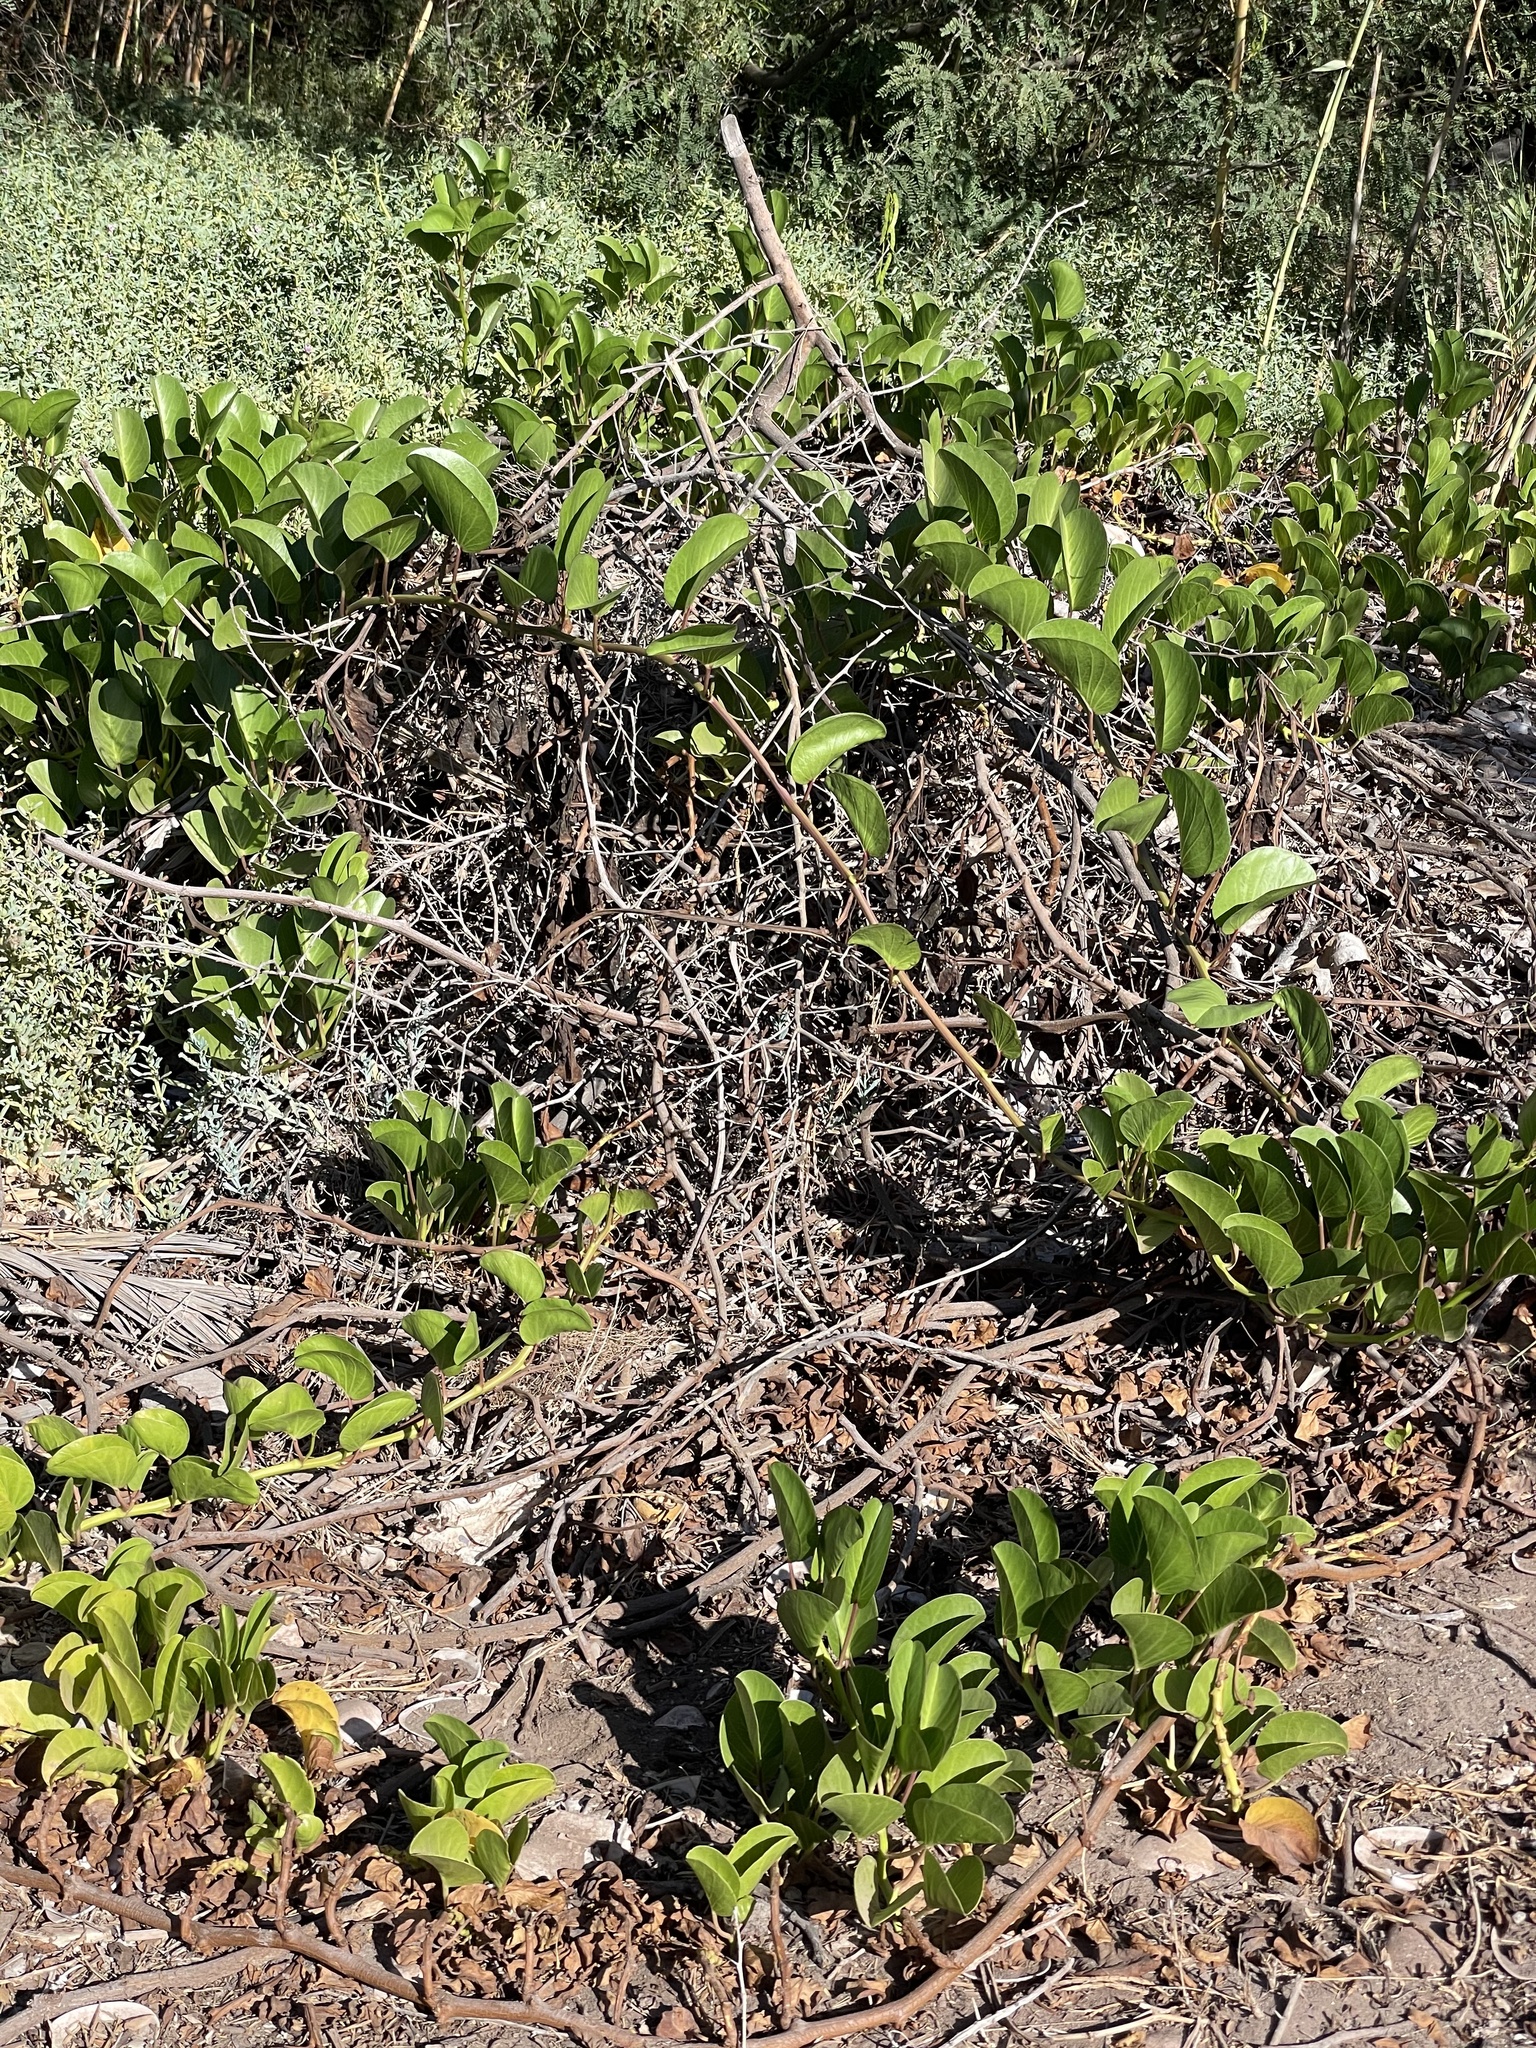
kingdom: Plantae
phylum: Tracheophyta
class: Magnoliopsida
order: Solanales
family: Convolvulaceae
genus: Ipomoea
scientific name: Ipomoea pes-caprae
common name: Beach morning glory
